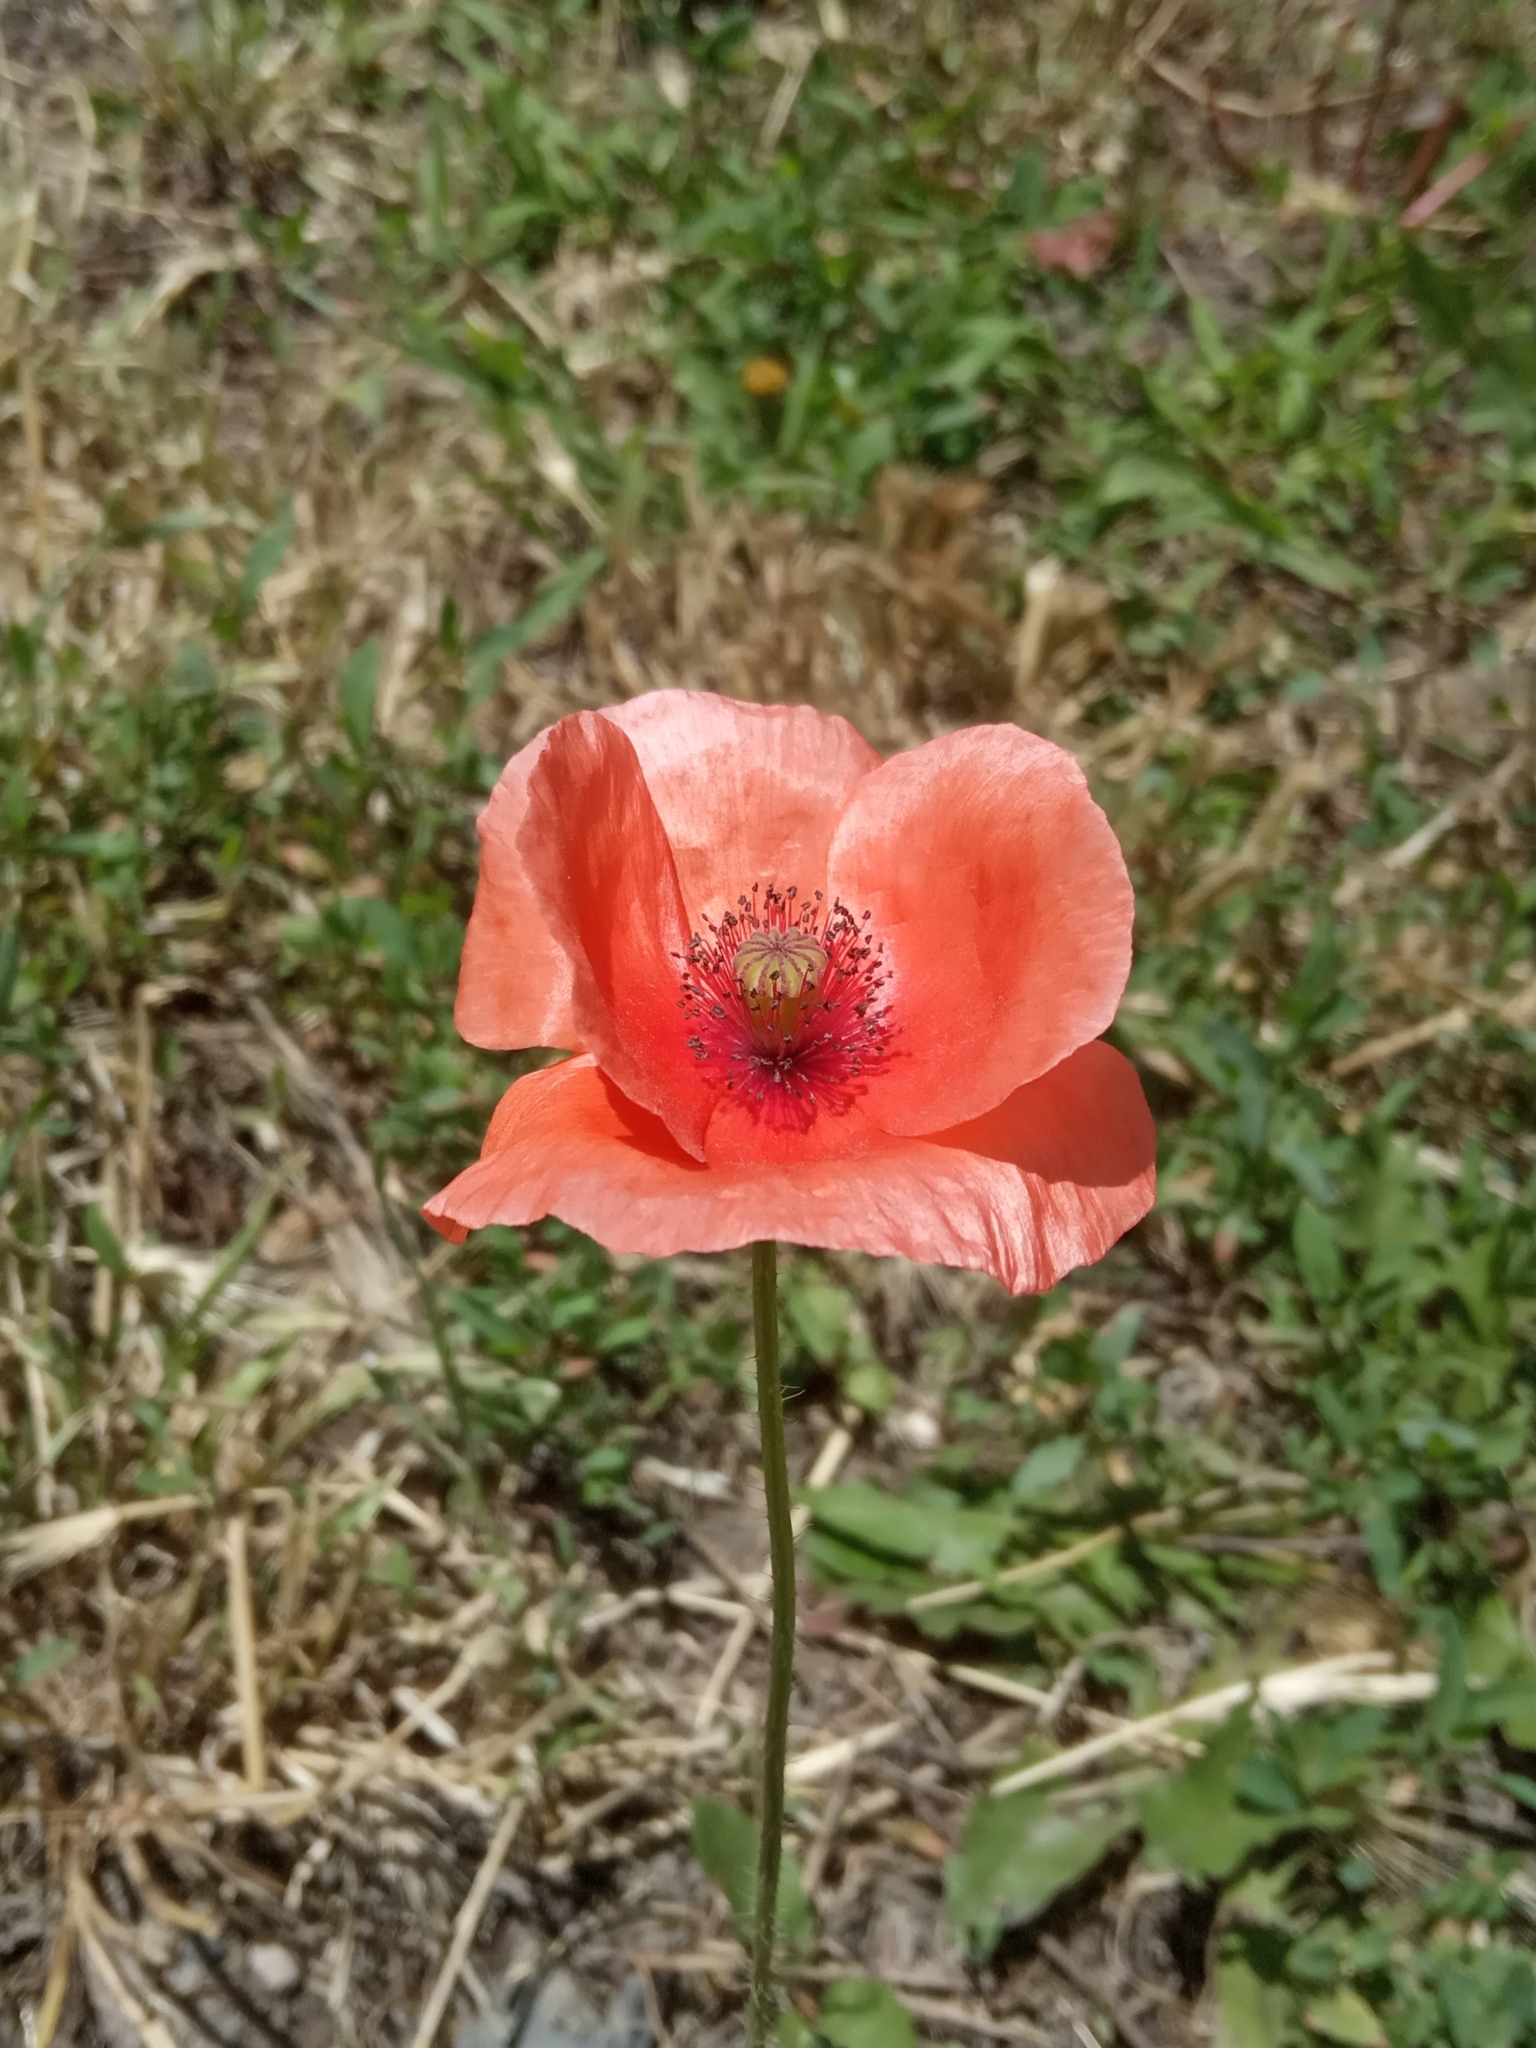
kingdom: Plantae
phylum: Tracheophyta
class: Magnoliopsida
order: Ranunculales
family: Papaveraceae
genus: Papaver
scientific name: Papaver rhoeas
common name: Corn poppy
